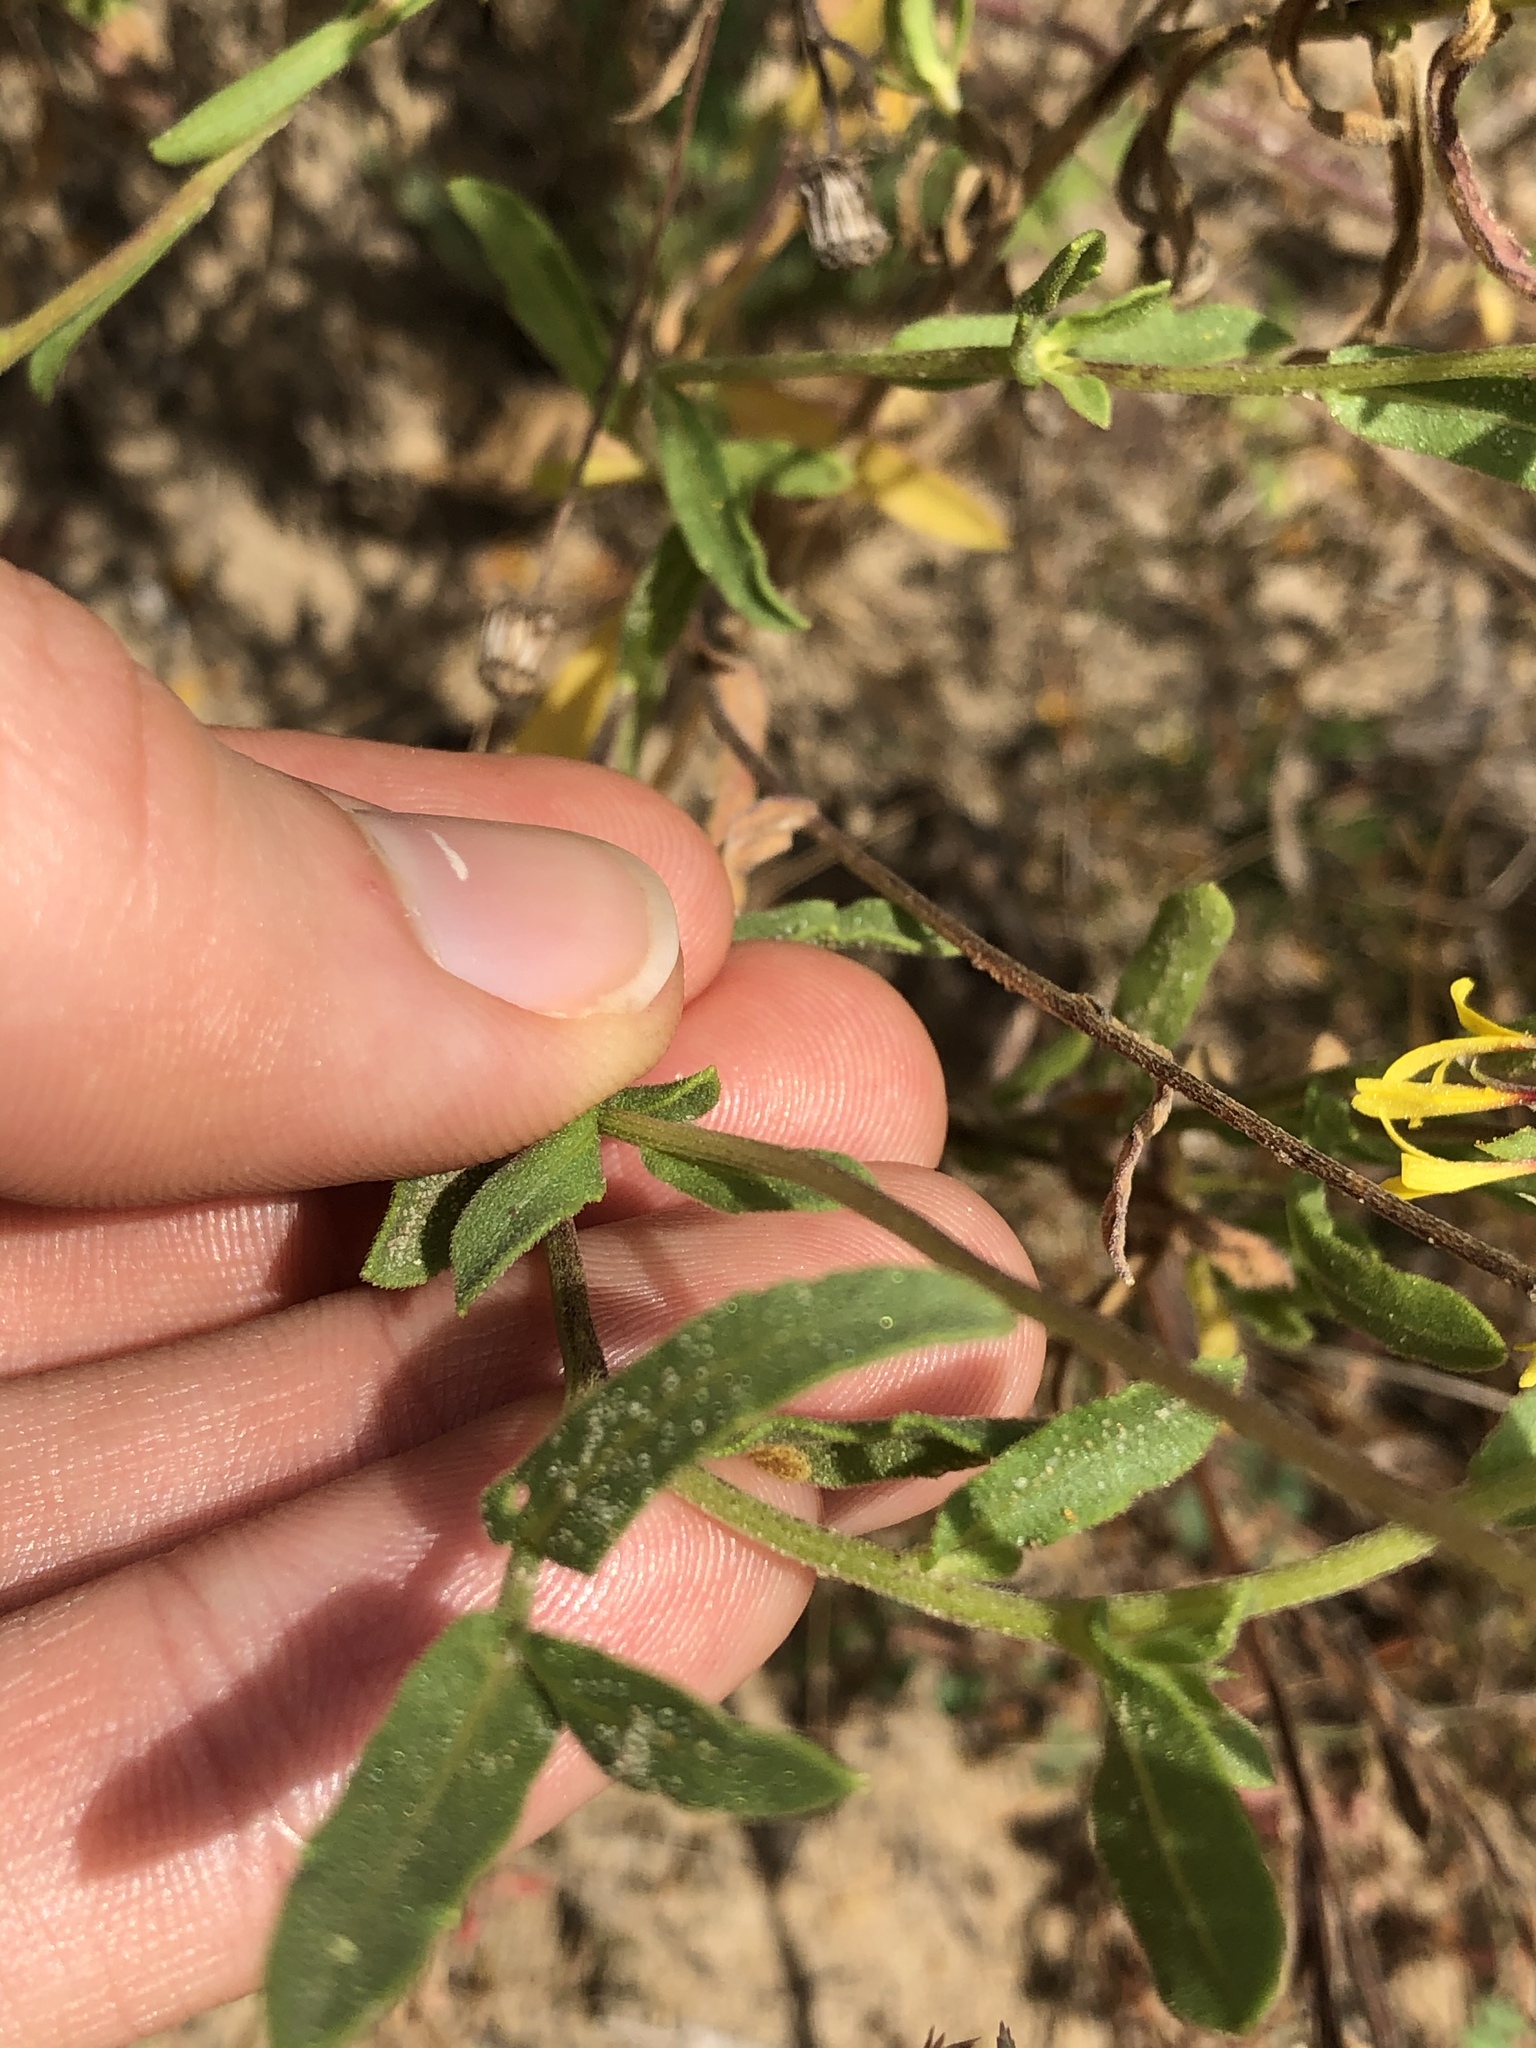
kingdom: Plantae
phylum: Tracheophyta
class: Magnoliopsida
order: Asterales
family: Asteraceae
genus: Gaillardia
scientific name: Gaillardia aestivalis
